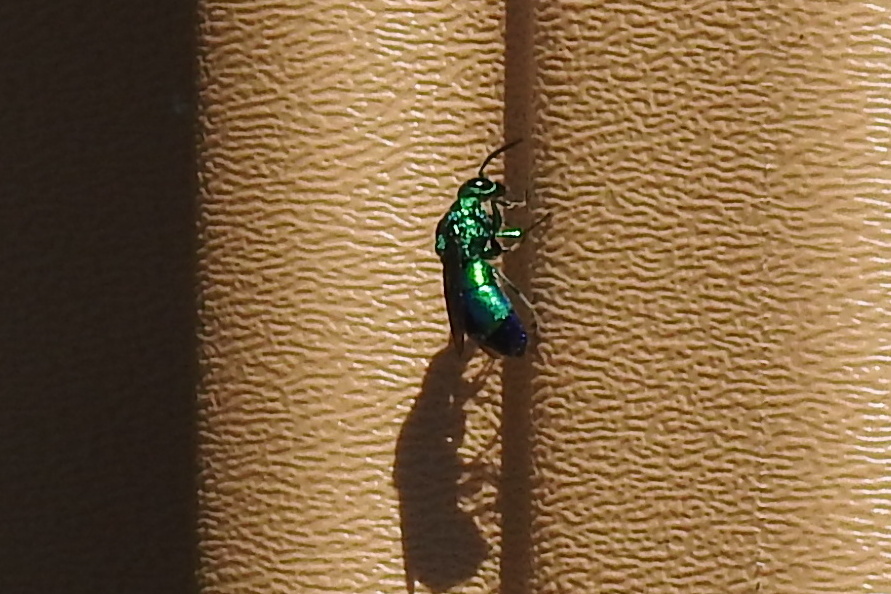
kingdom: Animalia
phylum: Arthropoda
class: Insecta
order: Hymenoptera
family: Chrysididae
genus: Chrysis
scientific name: Chrysis angolensis
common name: Cuckoo wasp
